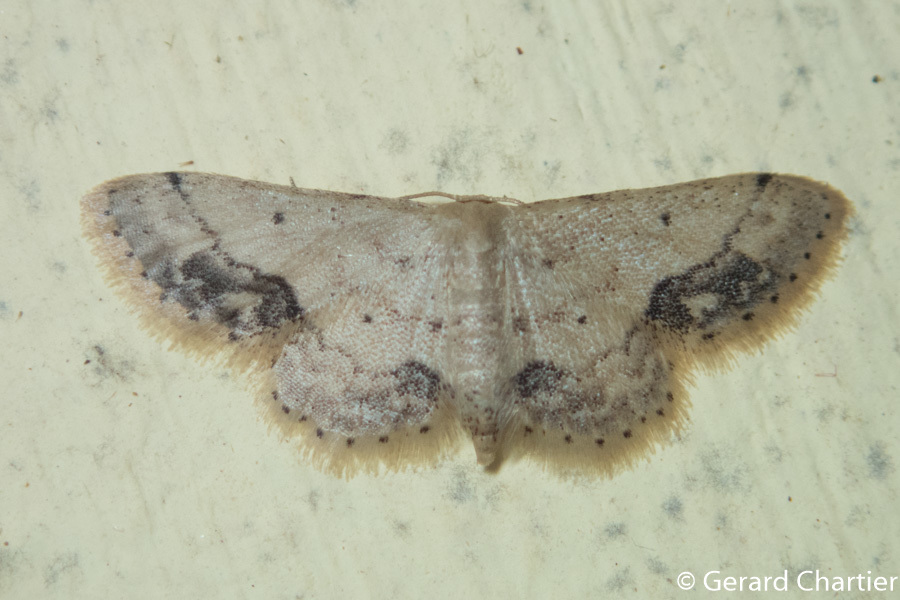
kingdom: Animalia
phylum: Arthropoda
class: Insecta
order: Lepidoptera
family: Geometridae
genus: Idaea
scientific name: Idaea chotaria
